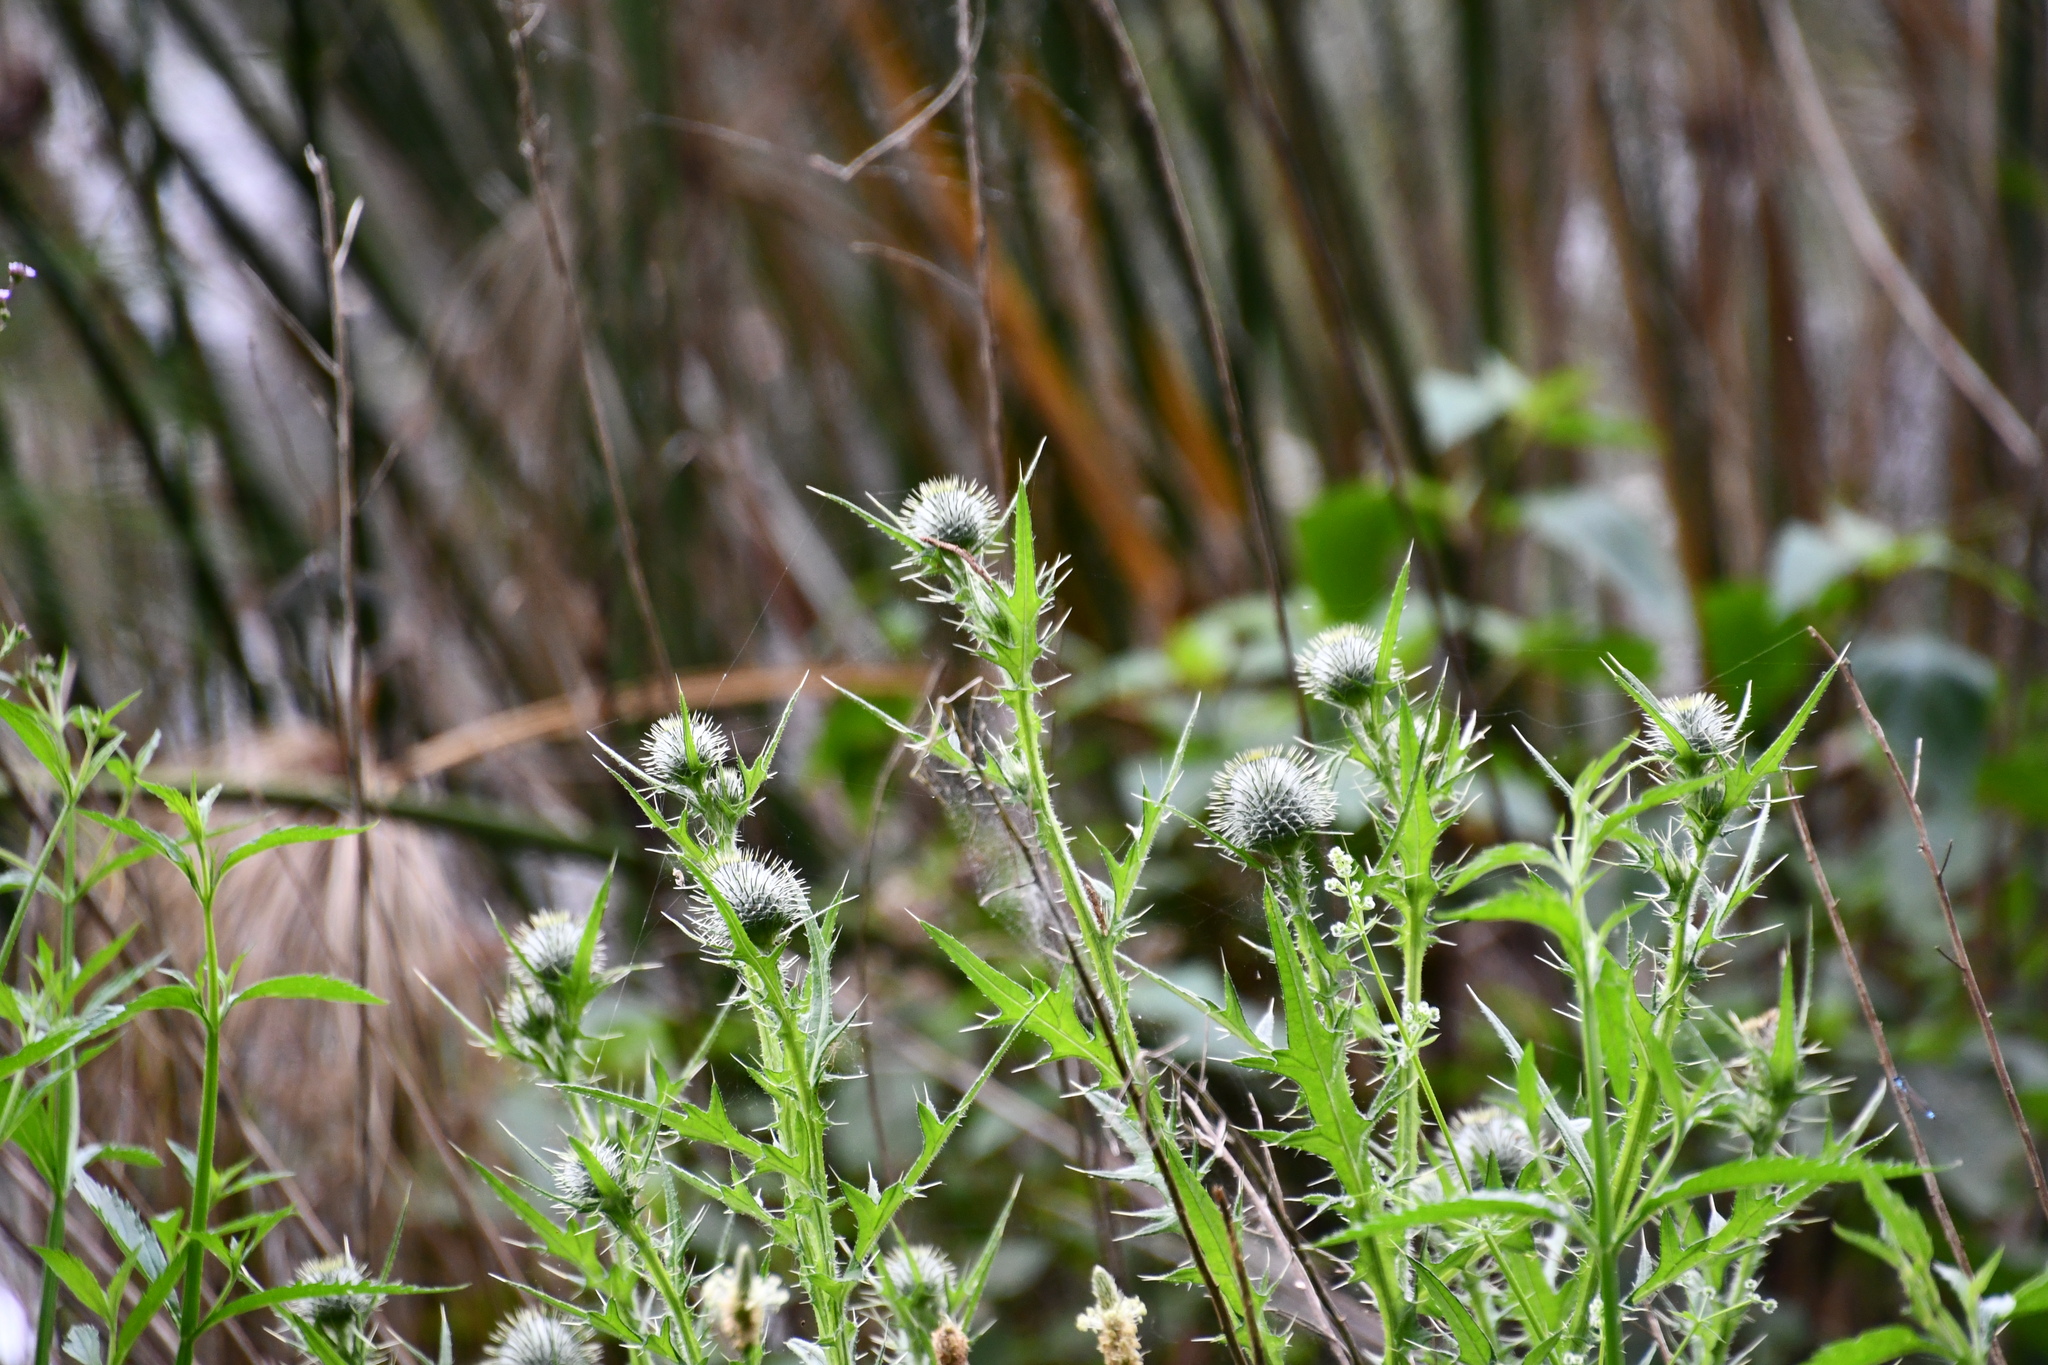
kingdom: Plantae
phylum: Tracheophyta
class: Magnoliopsida
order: Asterales
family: Asteraceae
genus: Cirsium
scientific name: Cirsium vulgare
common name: Bull thistle
